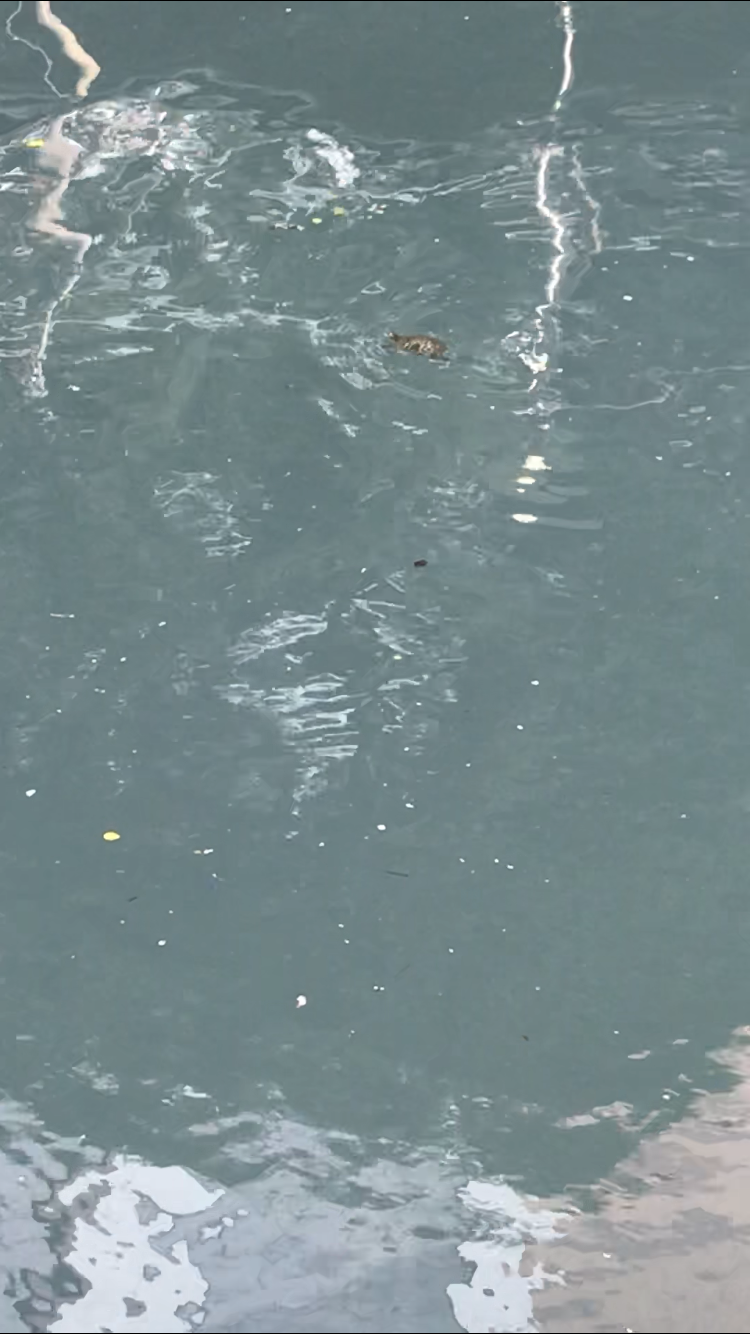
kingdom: Animalia
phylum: Chordata
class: Testudines
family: Emydidae
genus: Trachemys
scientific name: Trachemys scripta
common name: Slider
